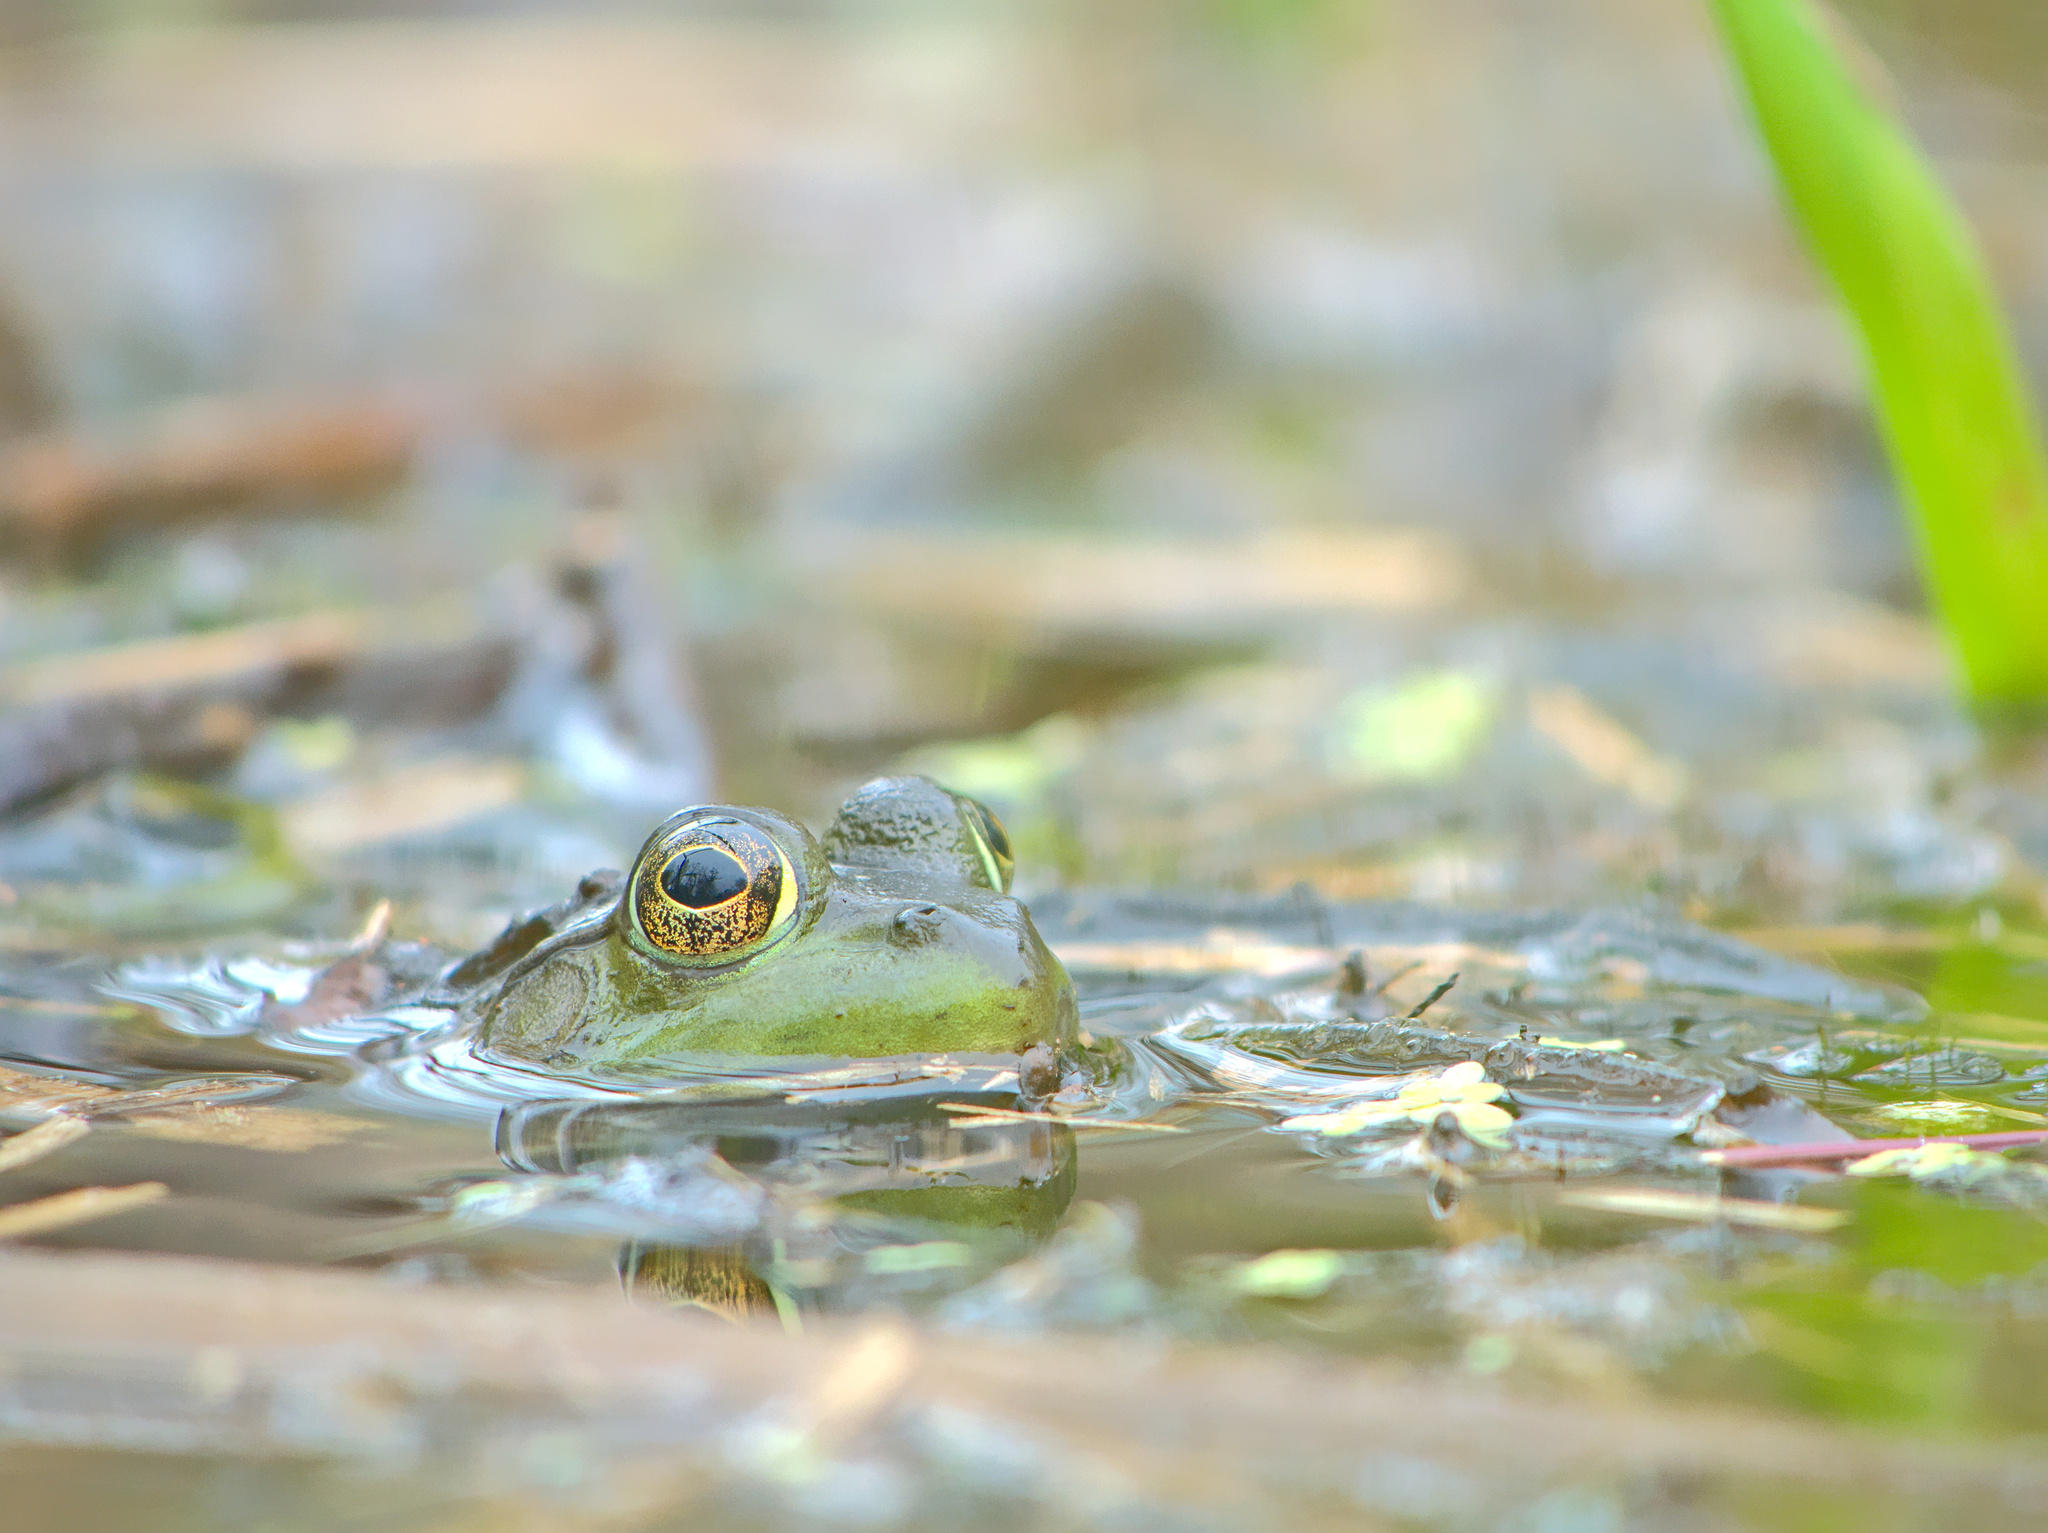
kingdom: Animalia
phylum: Chordata
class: Amphibia
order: Anura
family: Ranidae
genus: Lithobates
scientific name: Lithobates catesbeianus
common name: American bullfrog
